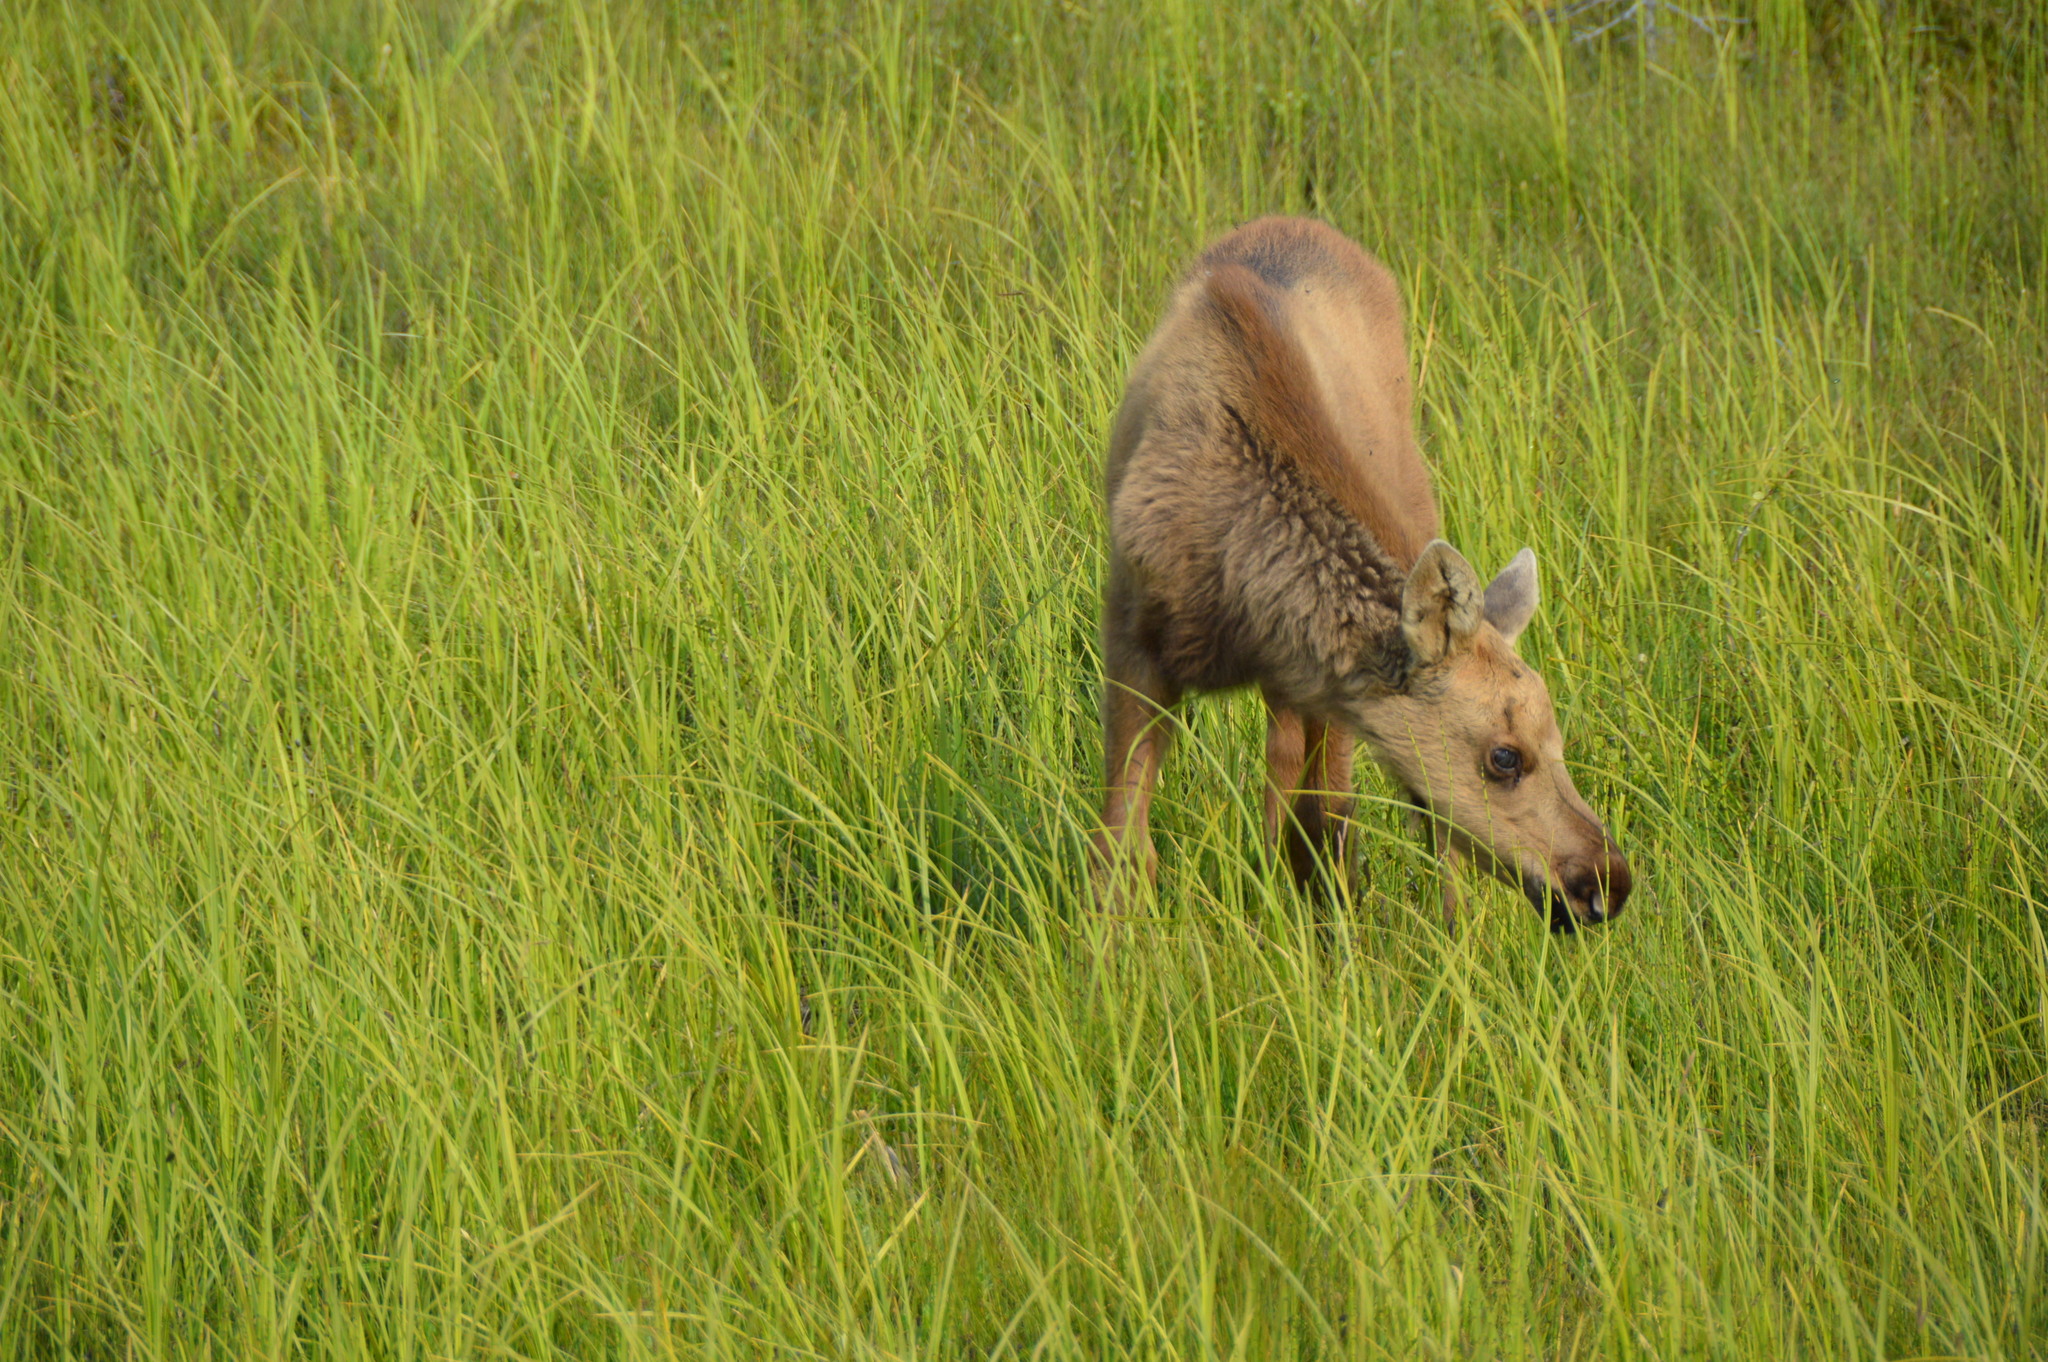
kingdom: Animalia
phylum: Chordata
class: Mammalia
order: Artiodactyla
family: Cervidae
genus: Alces
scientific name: Alces alces
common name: Moose
